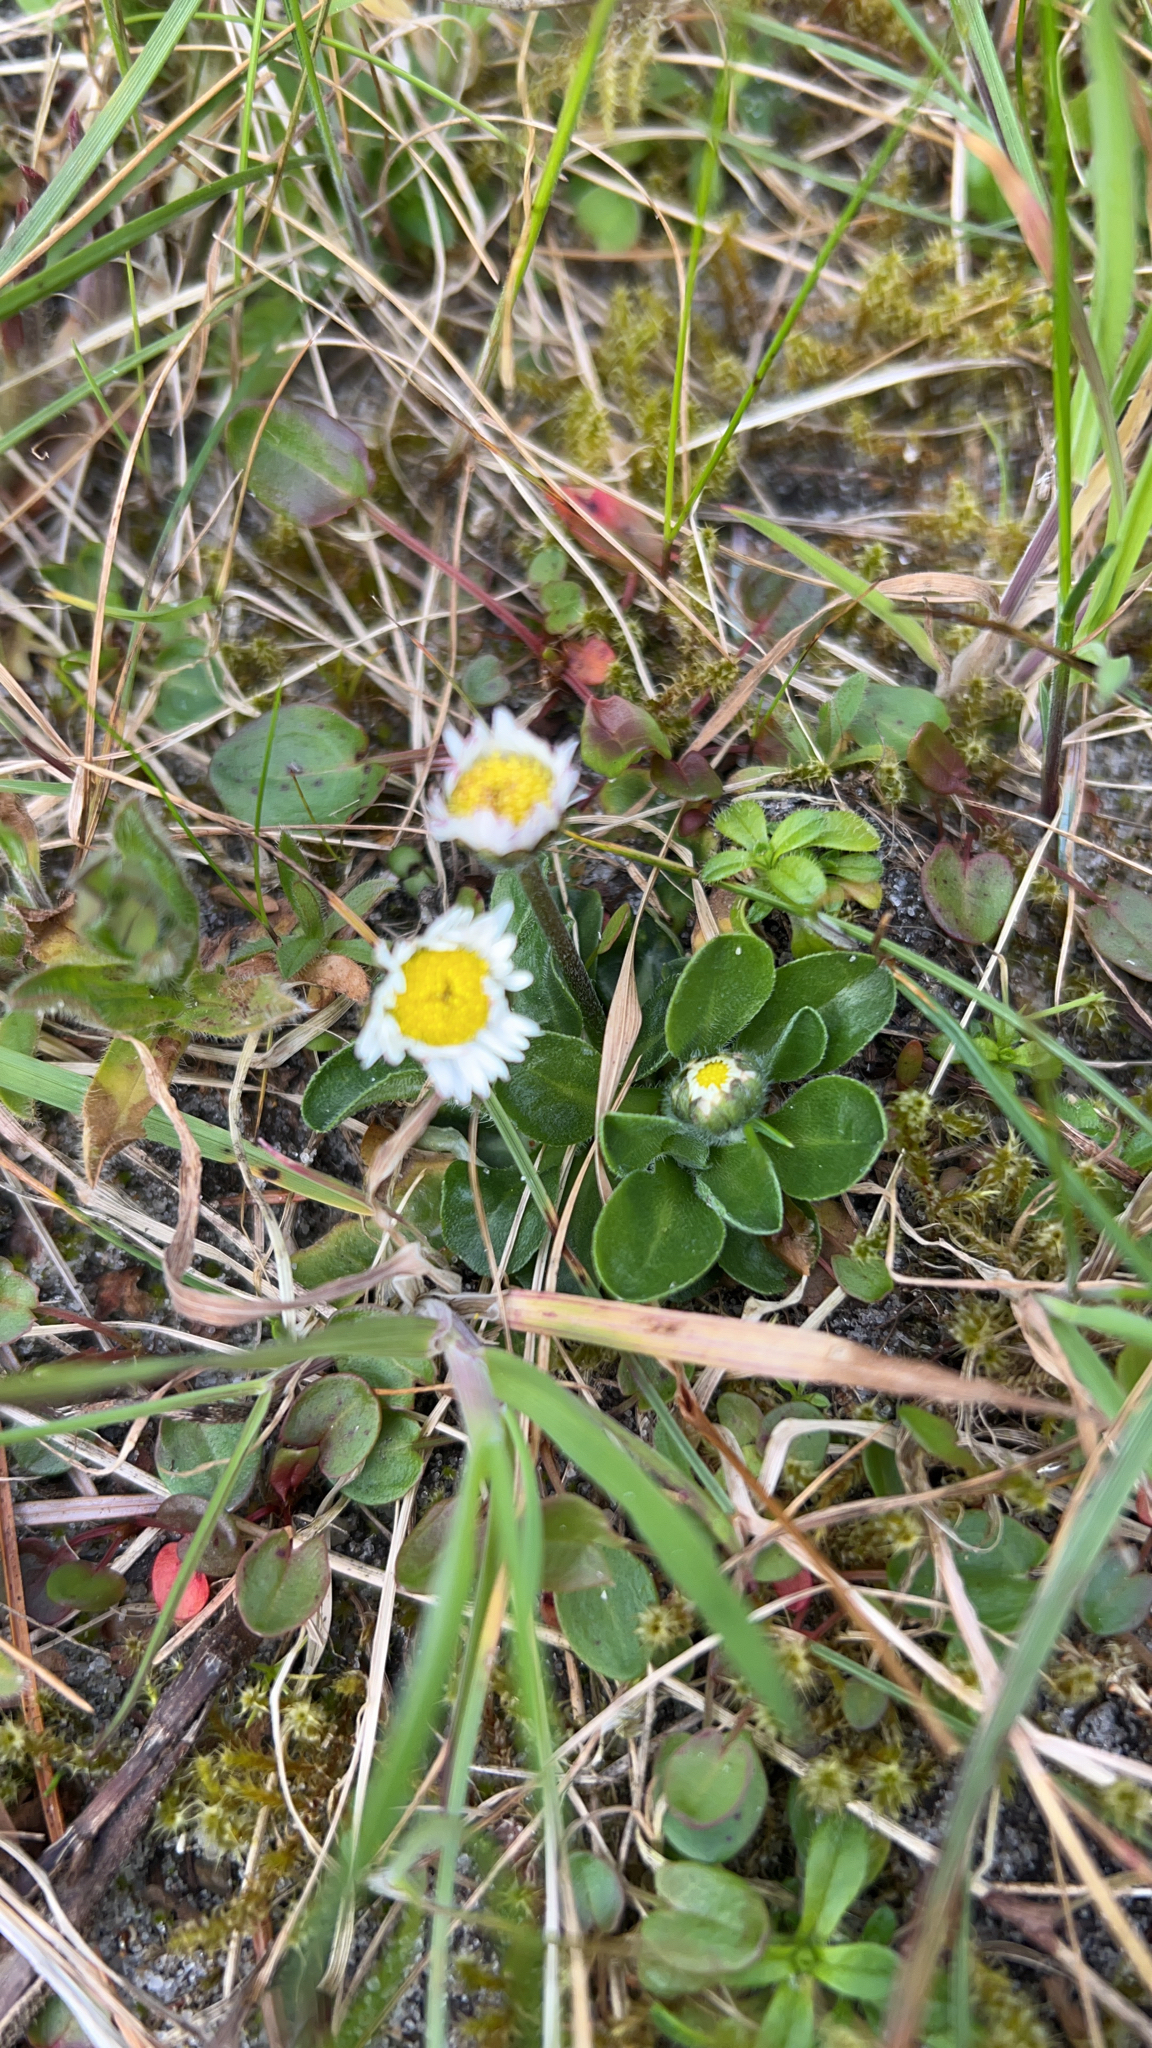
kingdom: Plantae
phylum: Tracheophyta
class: Magnoliopsida
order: Asterales
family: Asteraceae
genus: Bellis
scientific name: Bellis perennis
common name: Lawndaisy
